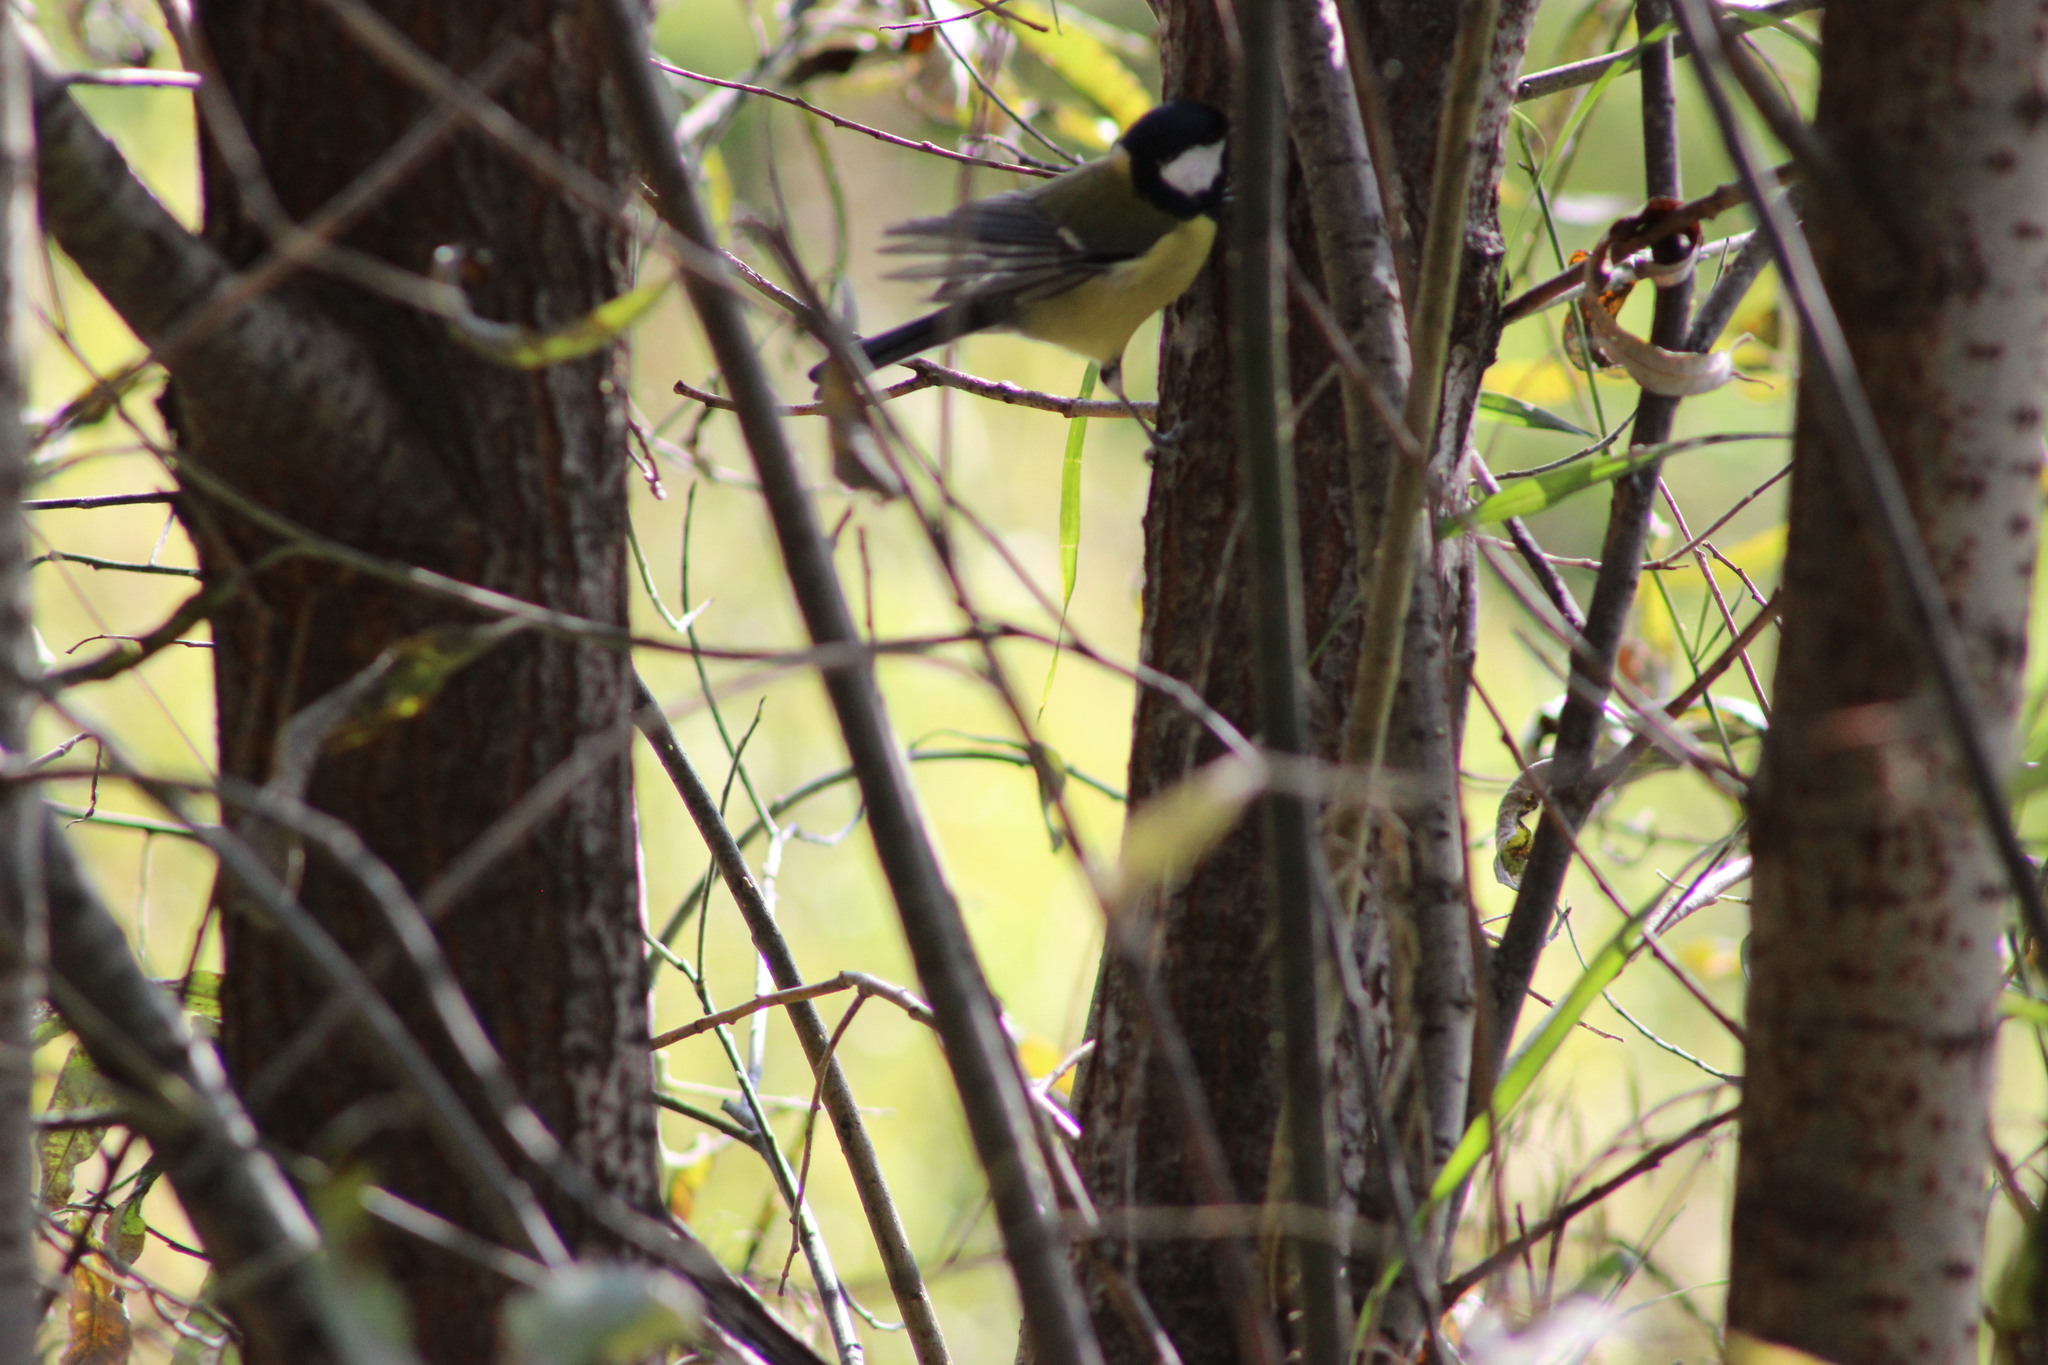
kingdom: Animalia
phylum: Chordata
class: Aves
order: Passeriformes
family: Paridae
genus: Parus
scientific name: Parus major
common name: Great tit
